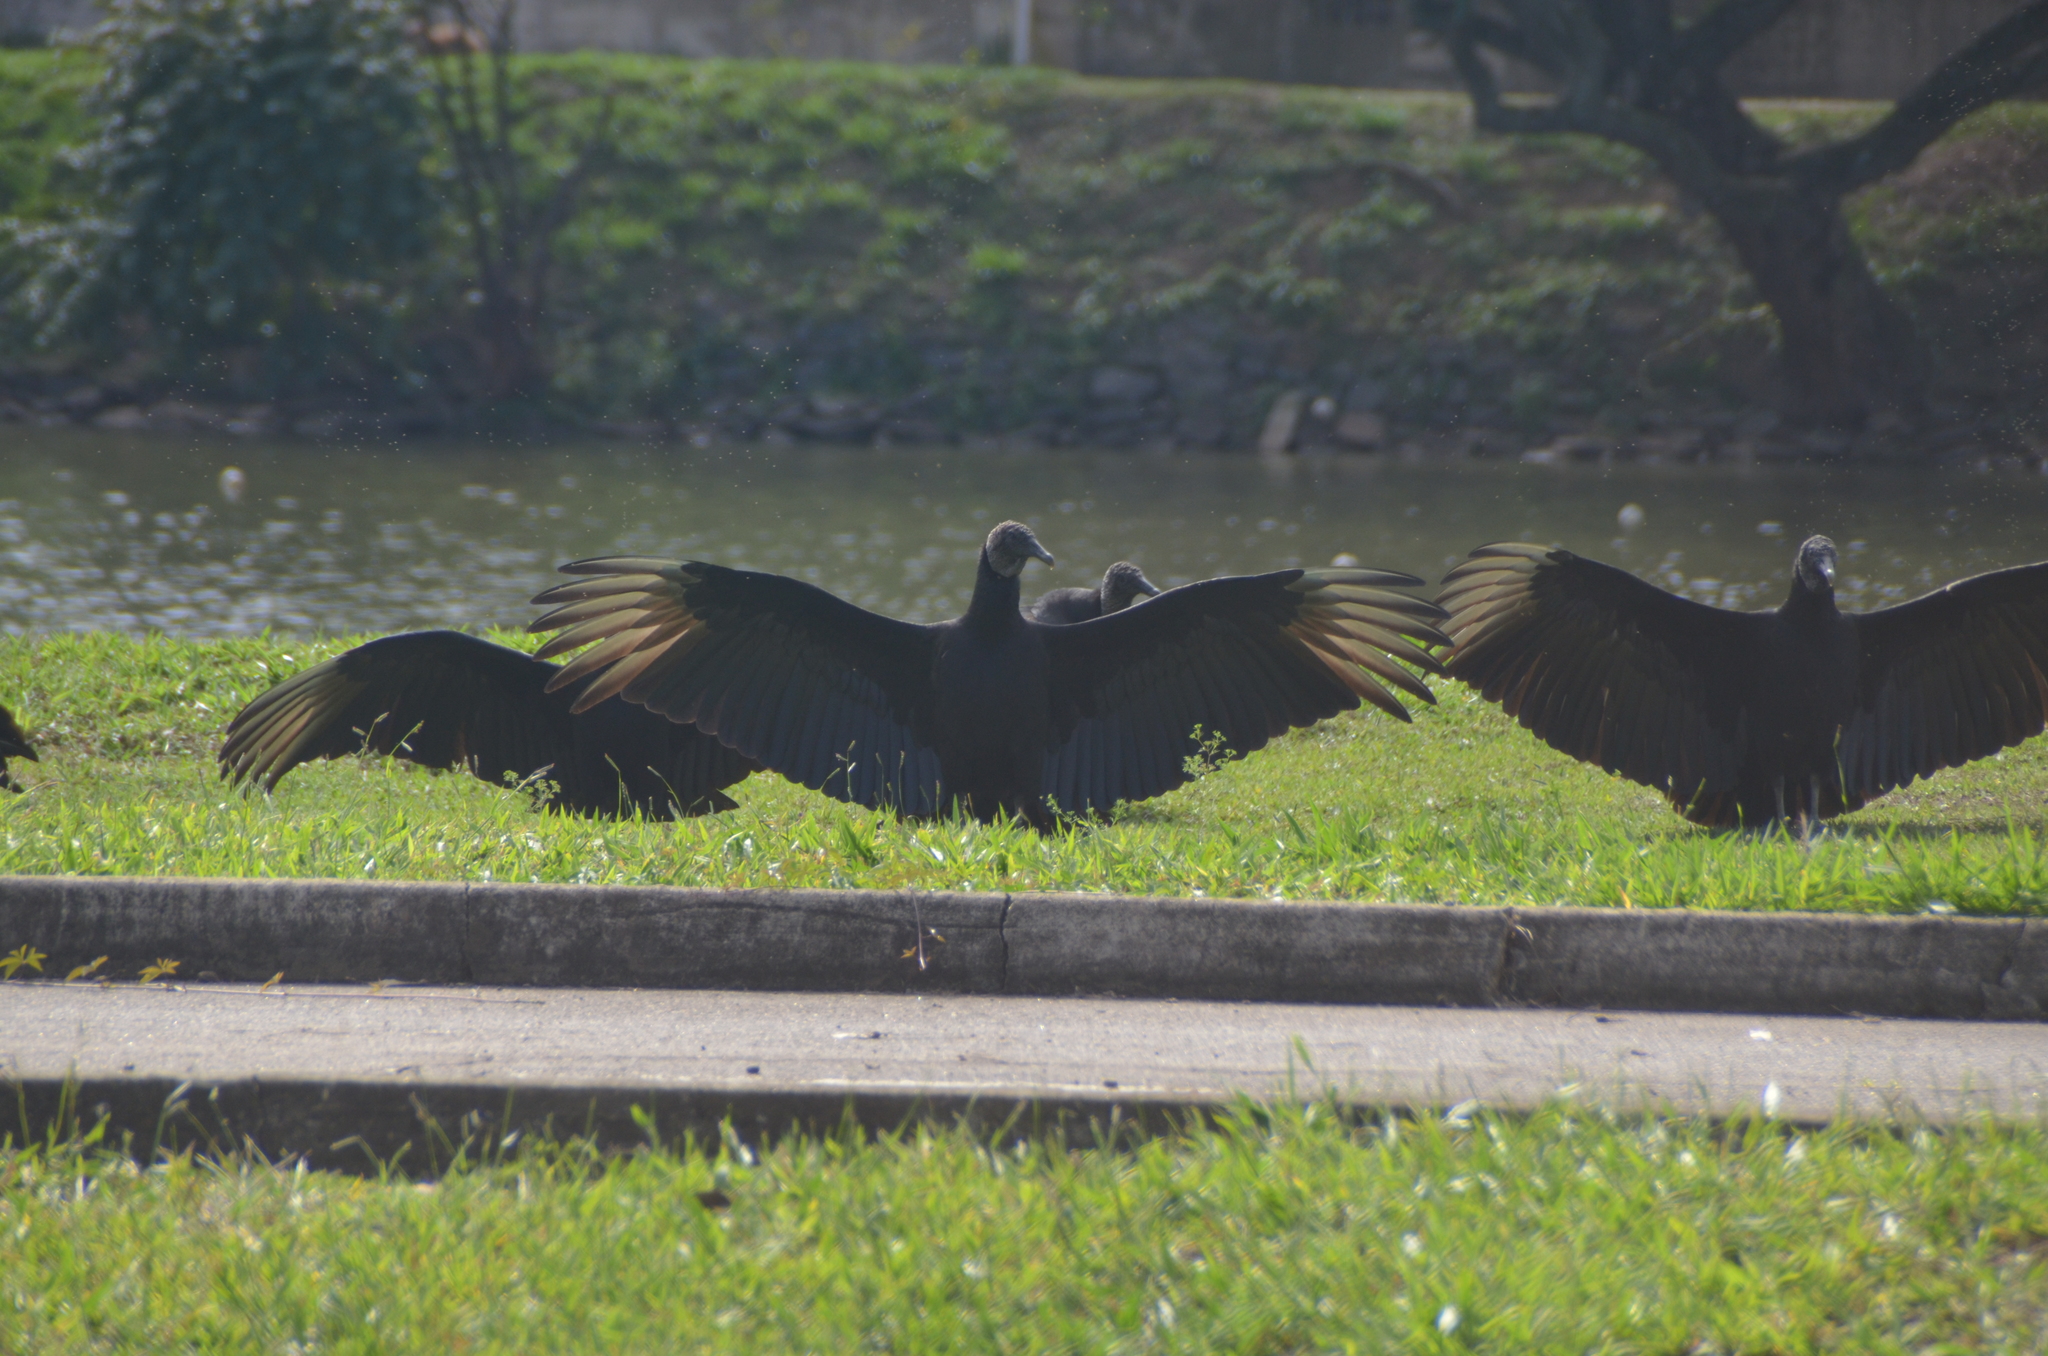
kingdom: Animalia
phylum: Chordata
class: Aves
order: Accipitriformes
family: Cathartidae
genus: Coragyps
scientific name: Coragyps atratus
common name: Black vulture
